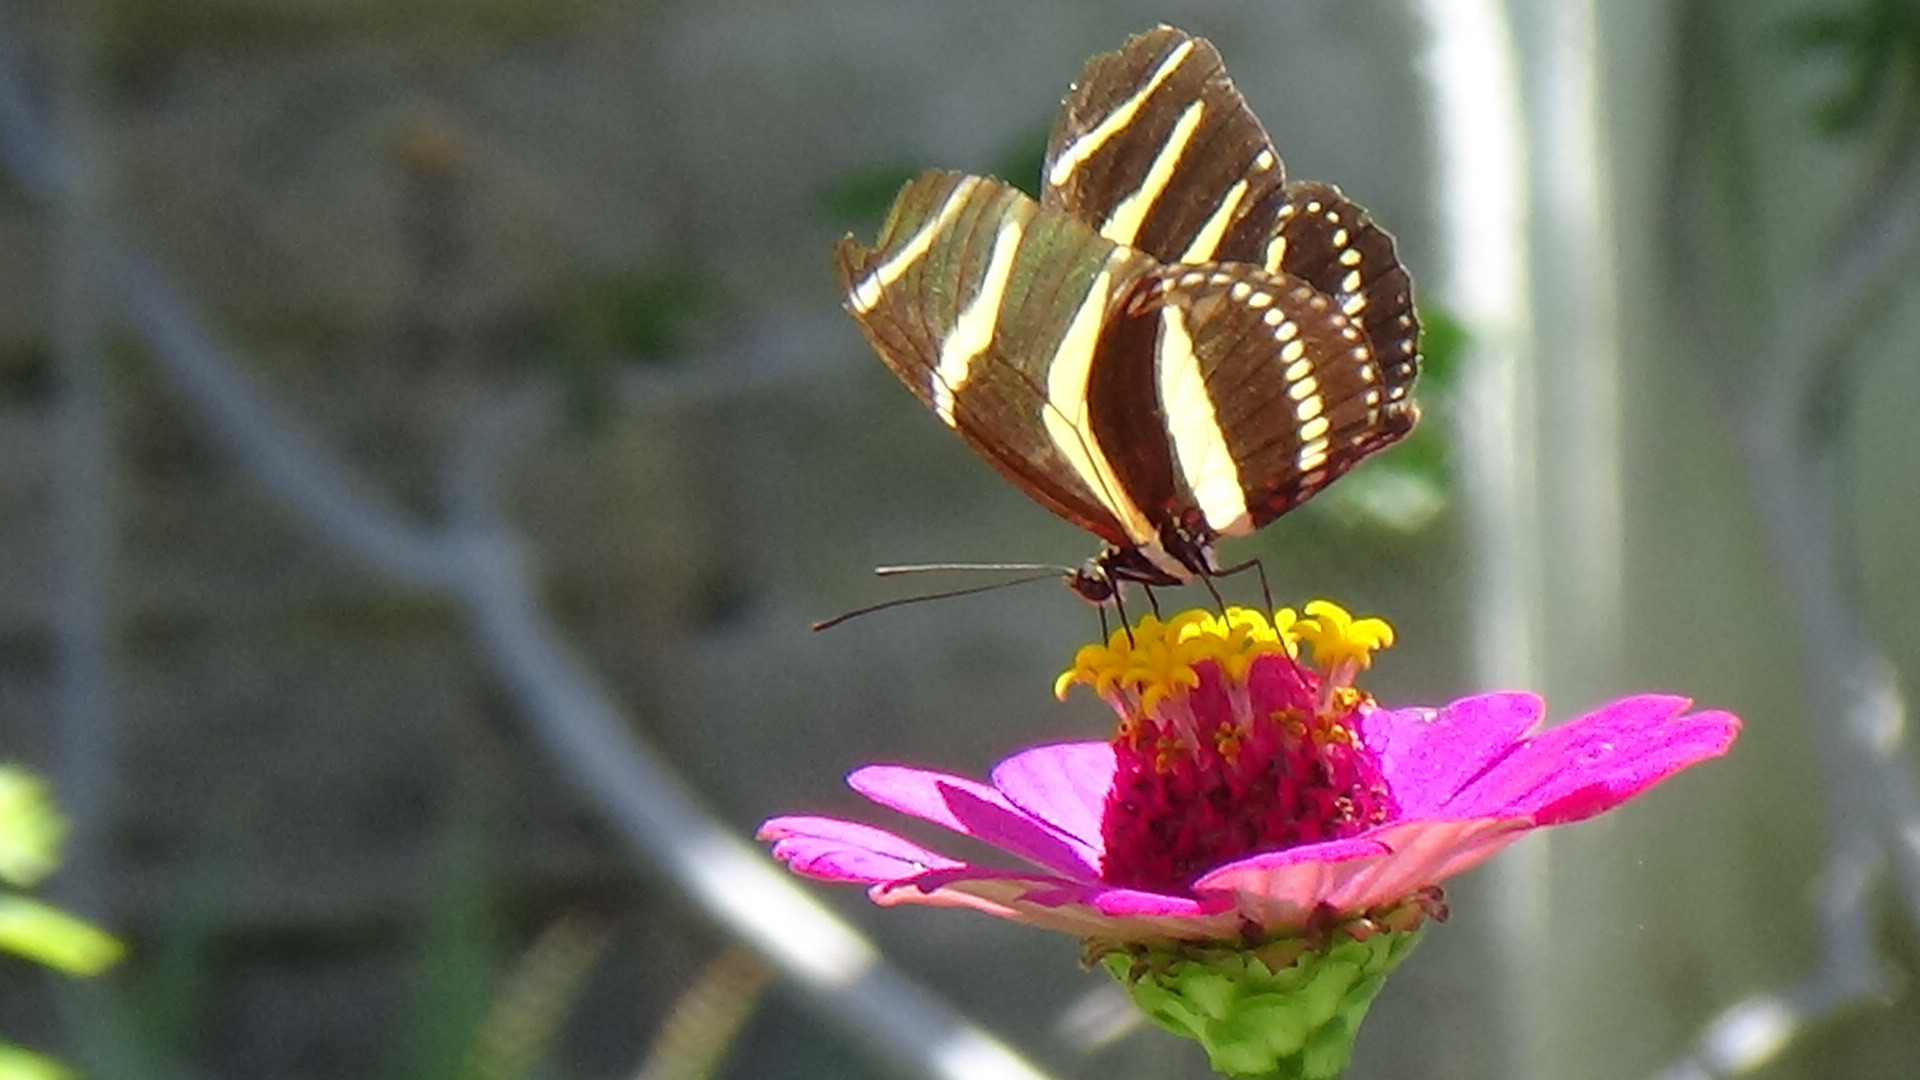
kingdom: Animalia
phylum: Arthropoda
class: Insecta
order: Lepidoptera
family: Nymphalidae
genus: Heliconius
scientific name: Heliconius charithonia
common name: Zebra long wing
